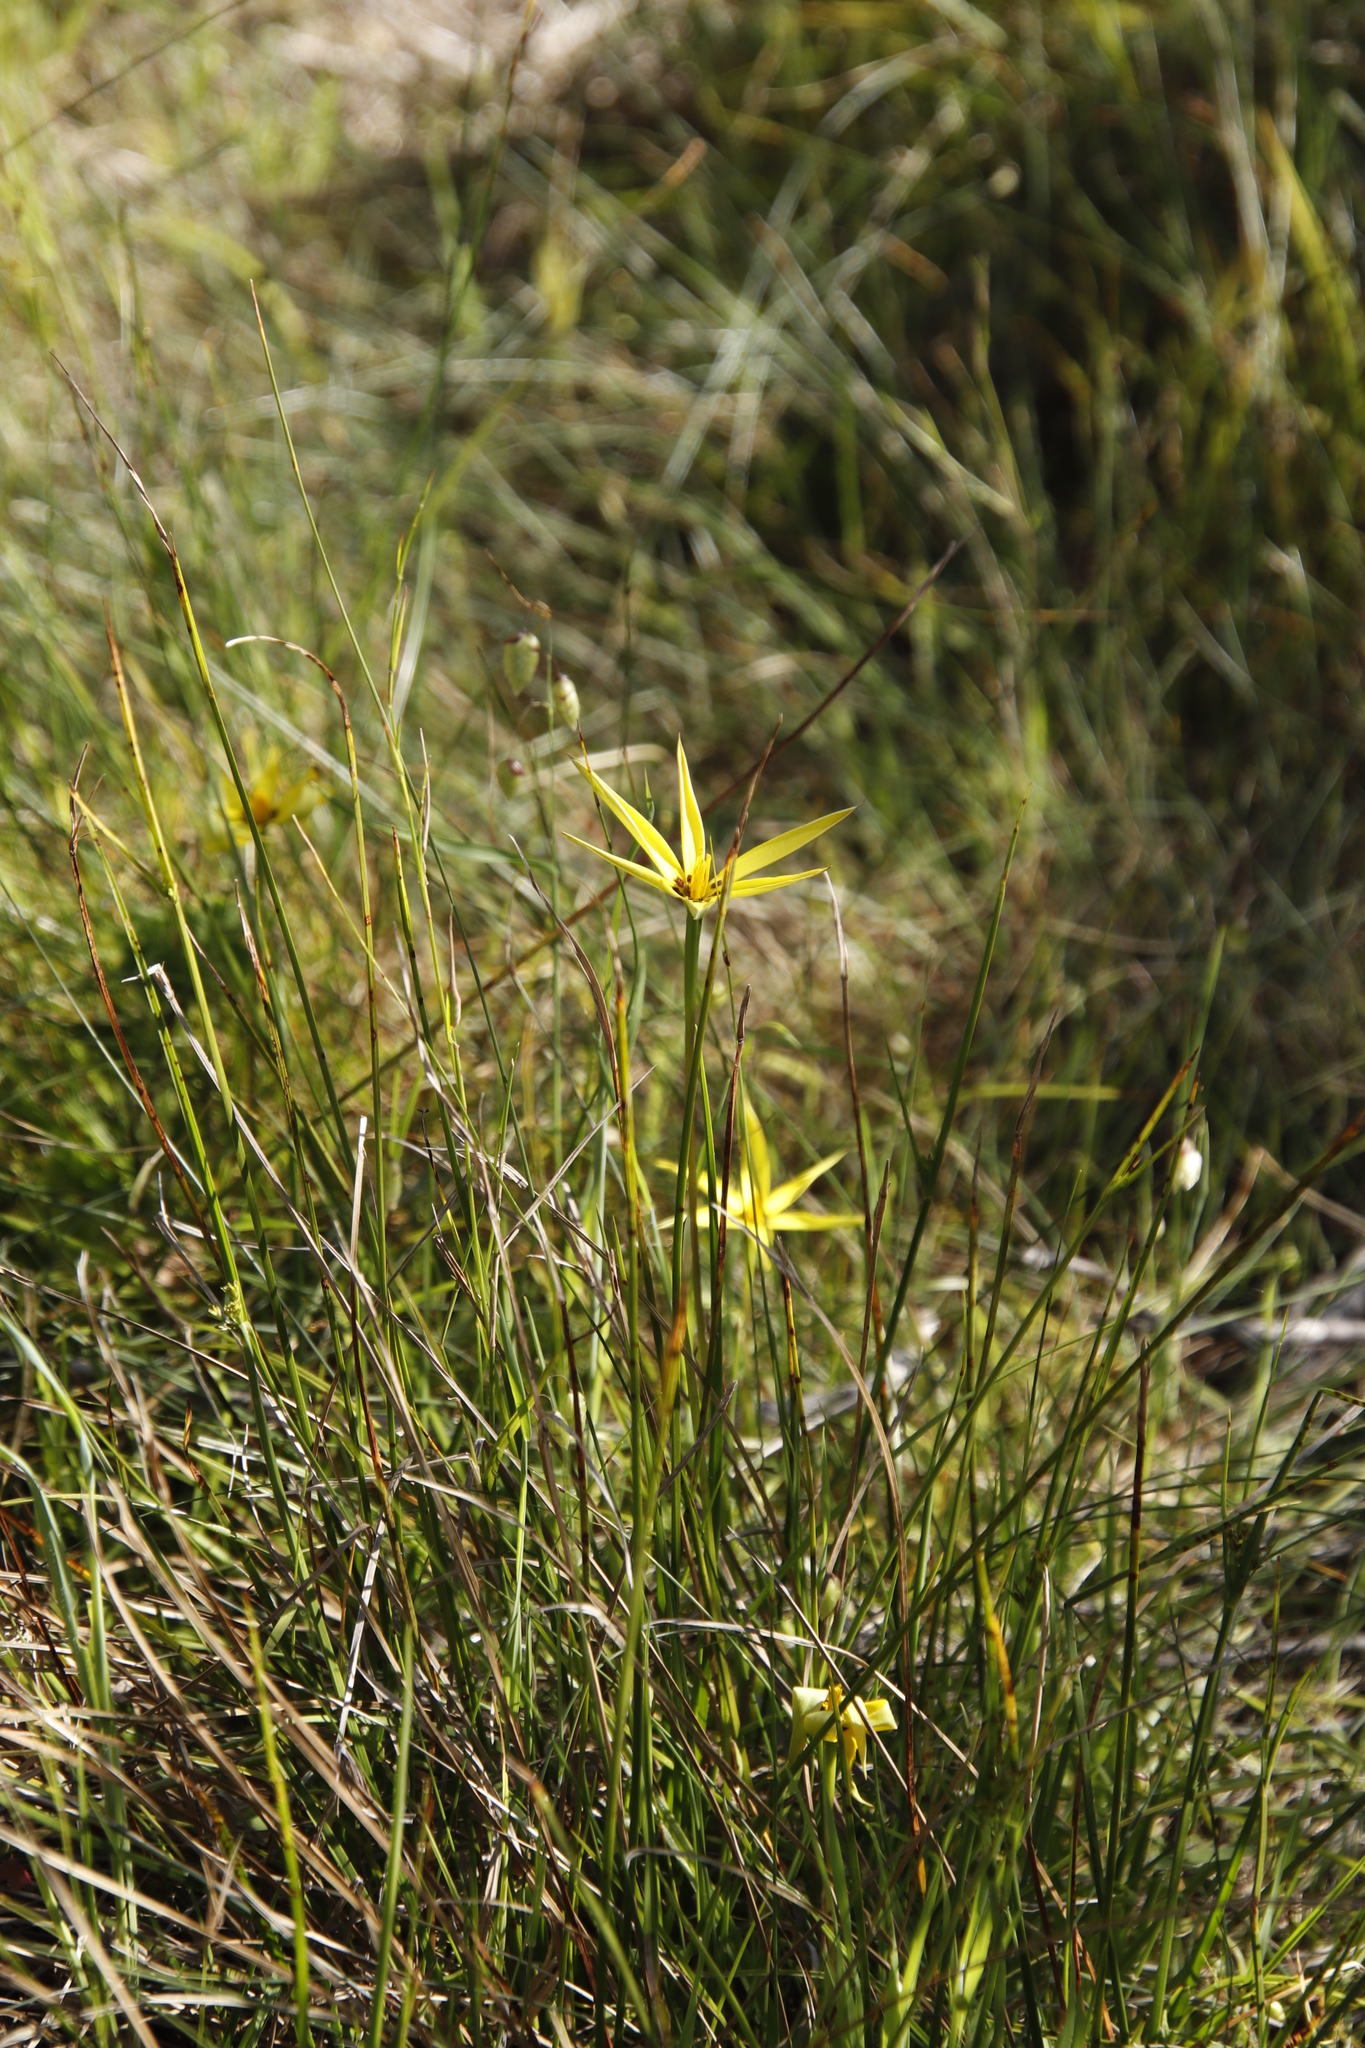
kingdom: Plantae
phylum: Tracheophyta
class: Liliopsida
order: Asparagales
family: Hypoxidaceae
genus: Pauridia
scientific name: Pauridia capensis
